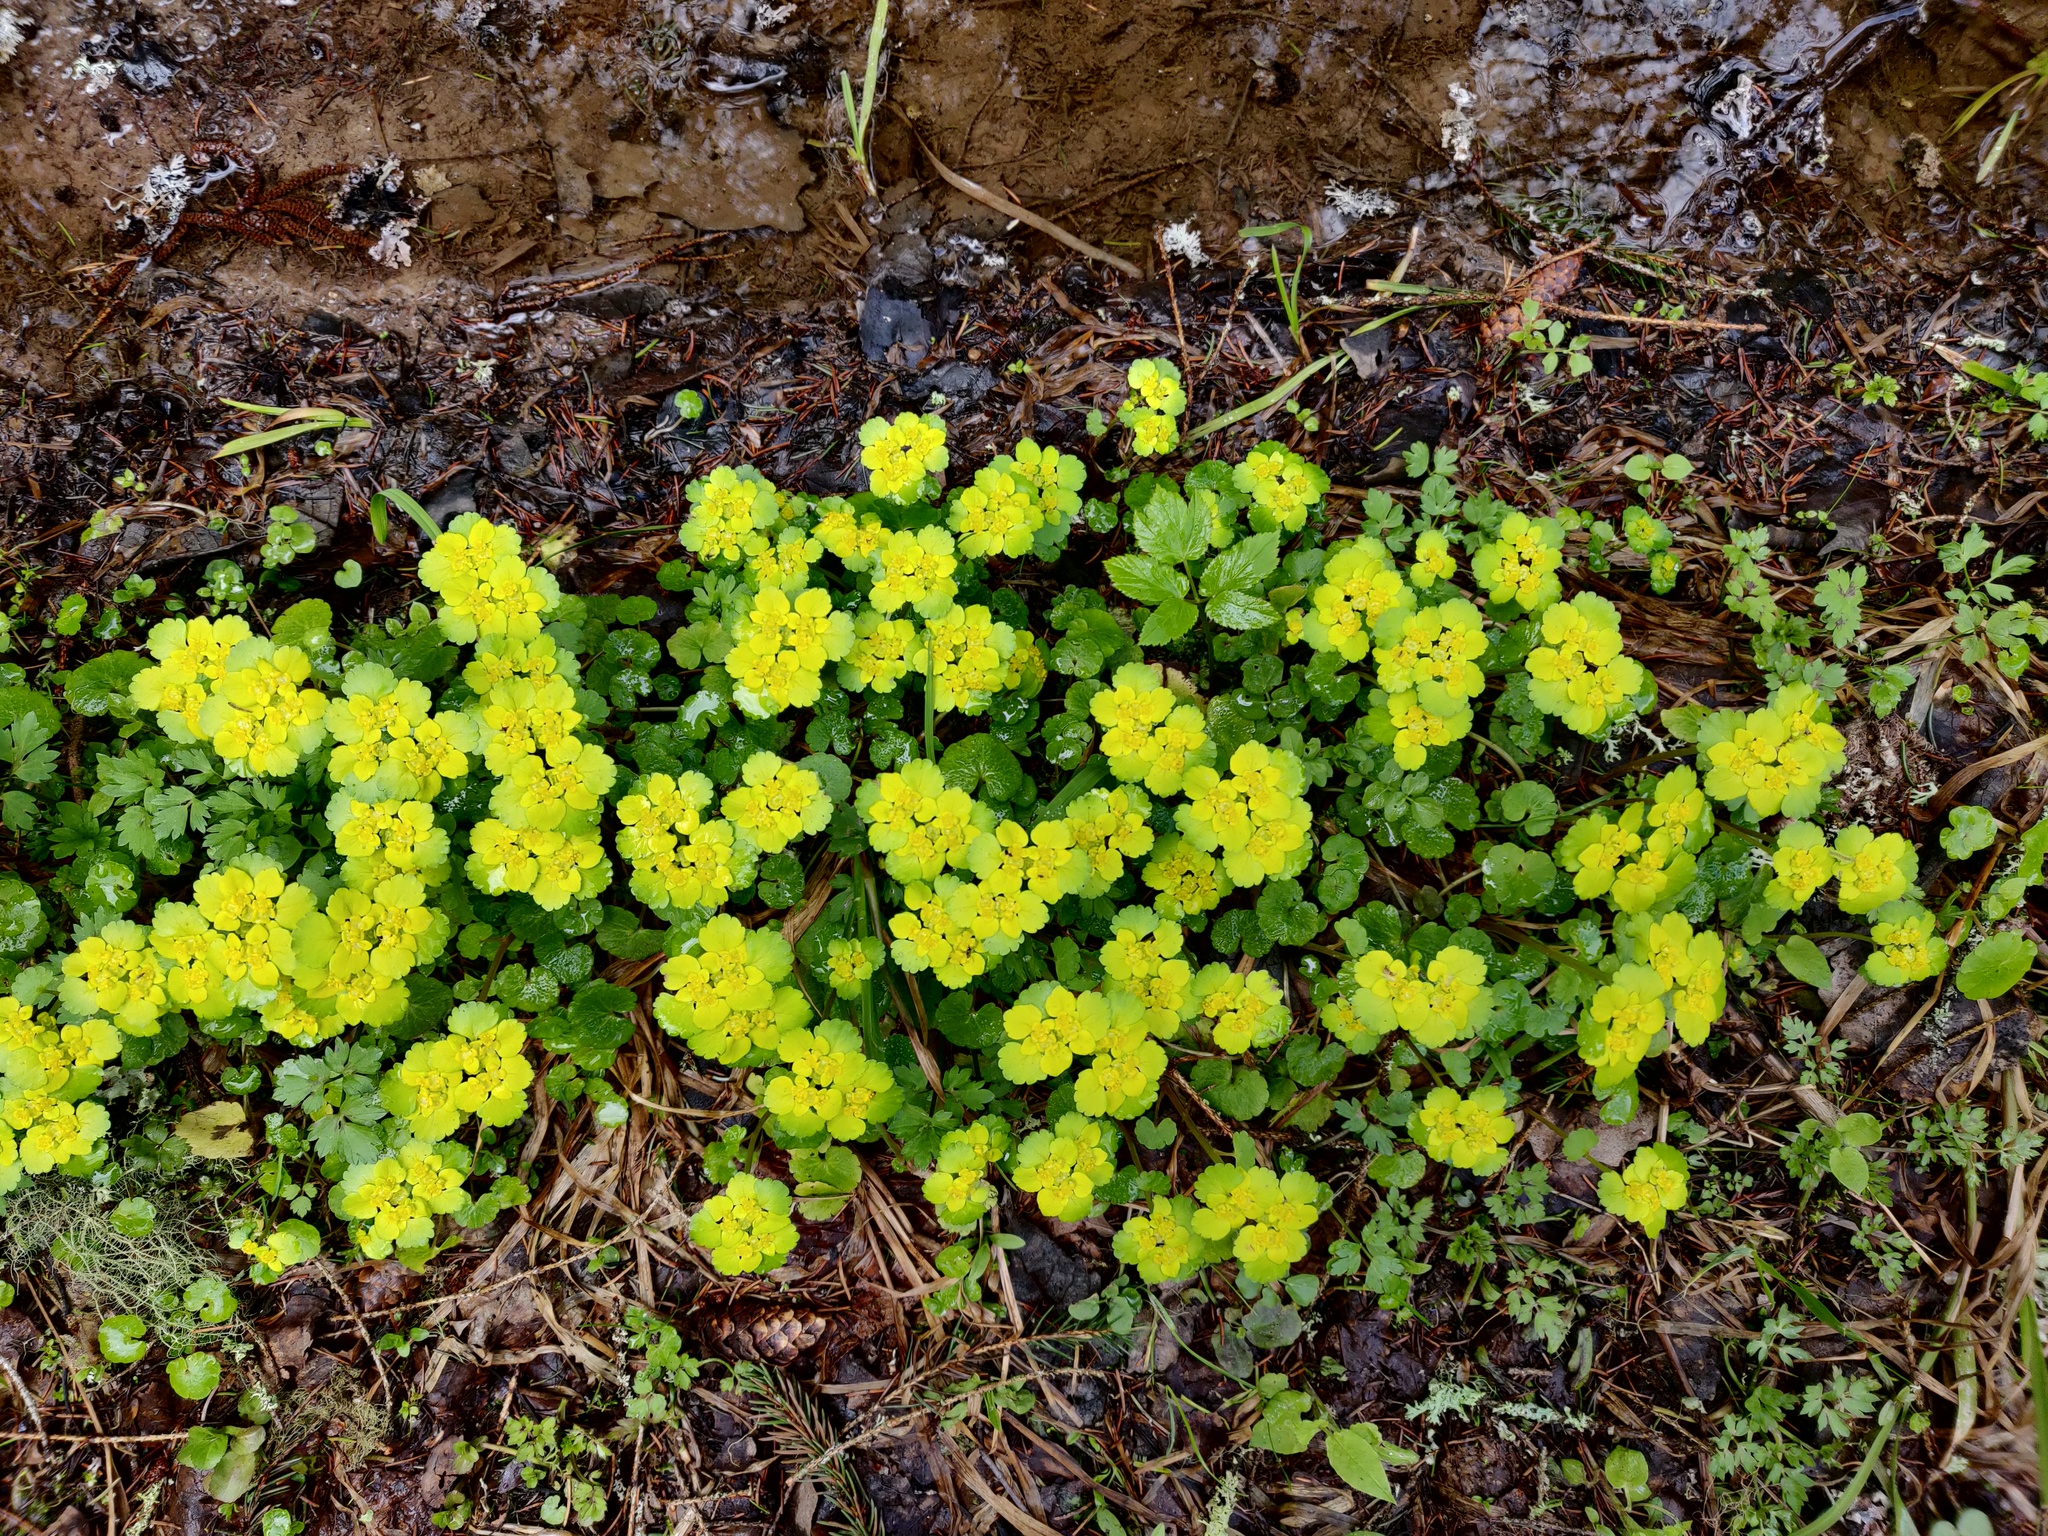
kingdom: Plantae
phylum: Tracheophyta
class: Magnoliopsida
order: Saxifragales
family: Saxifragaceae
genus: Chrysosplenium
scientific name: Chrysosplenium alternifolium
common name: Alternate-leaved golden-saxifrage
